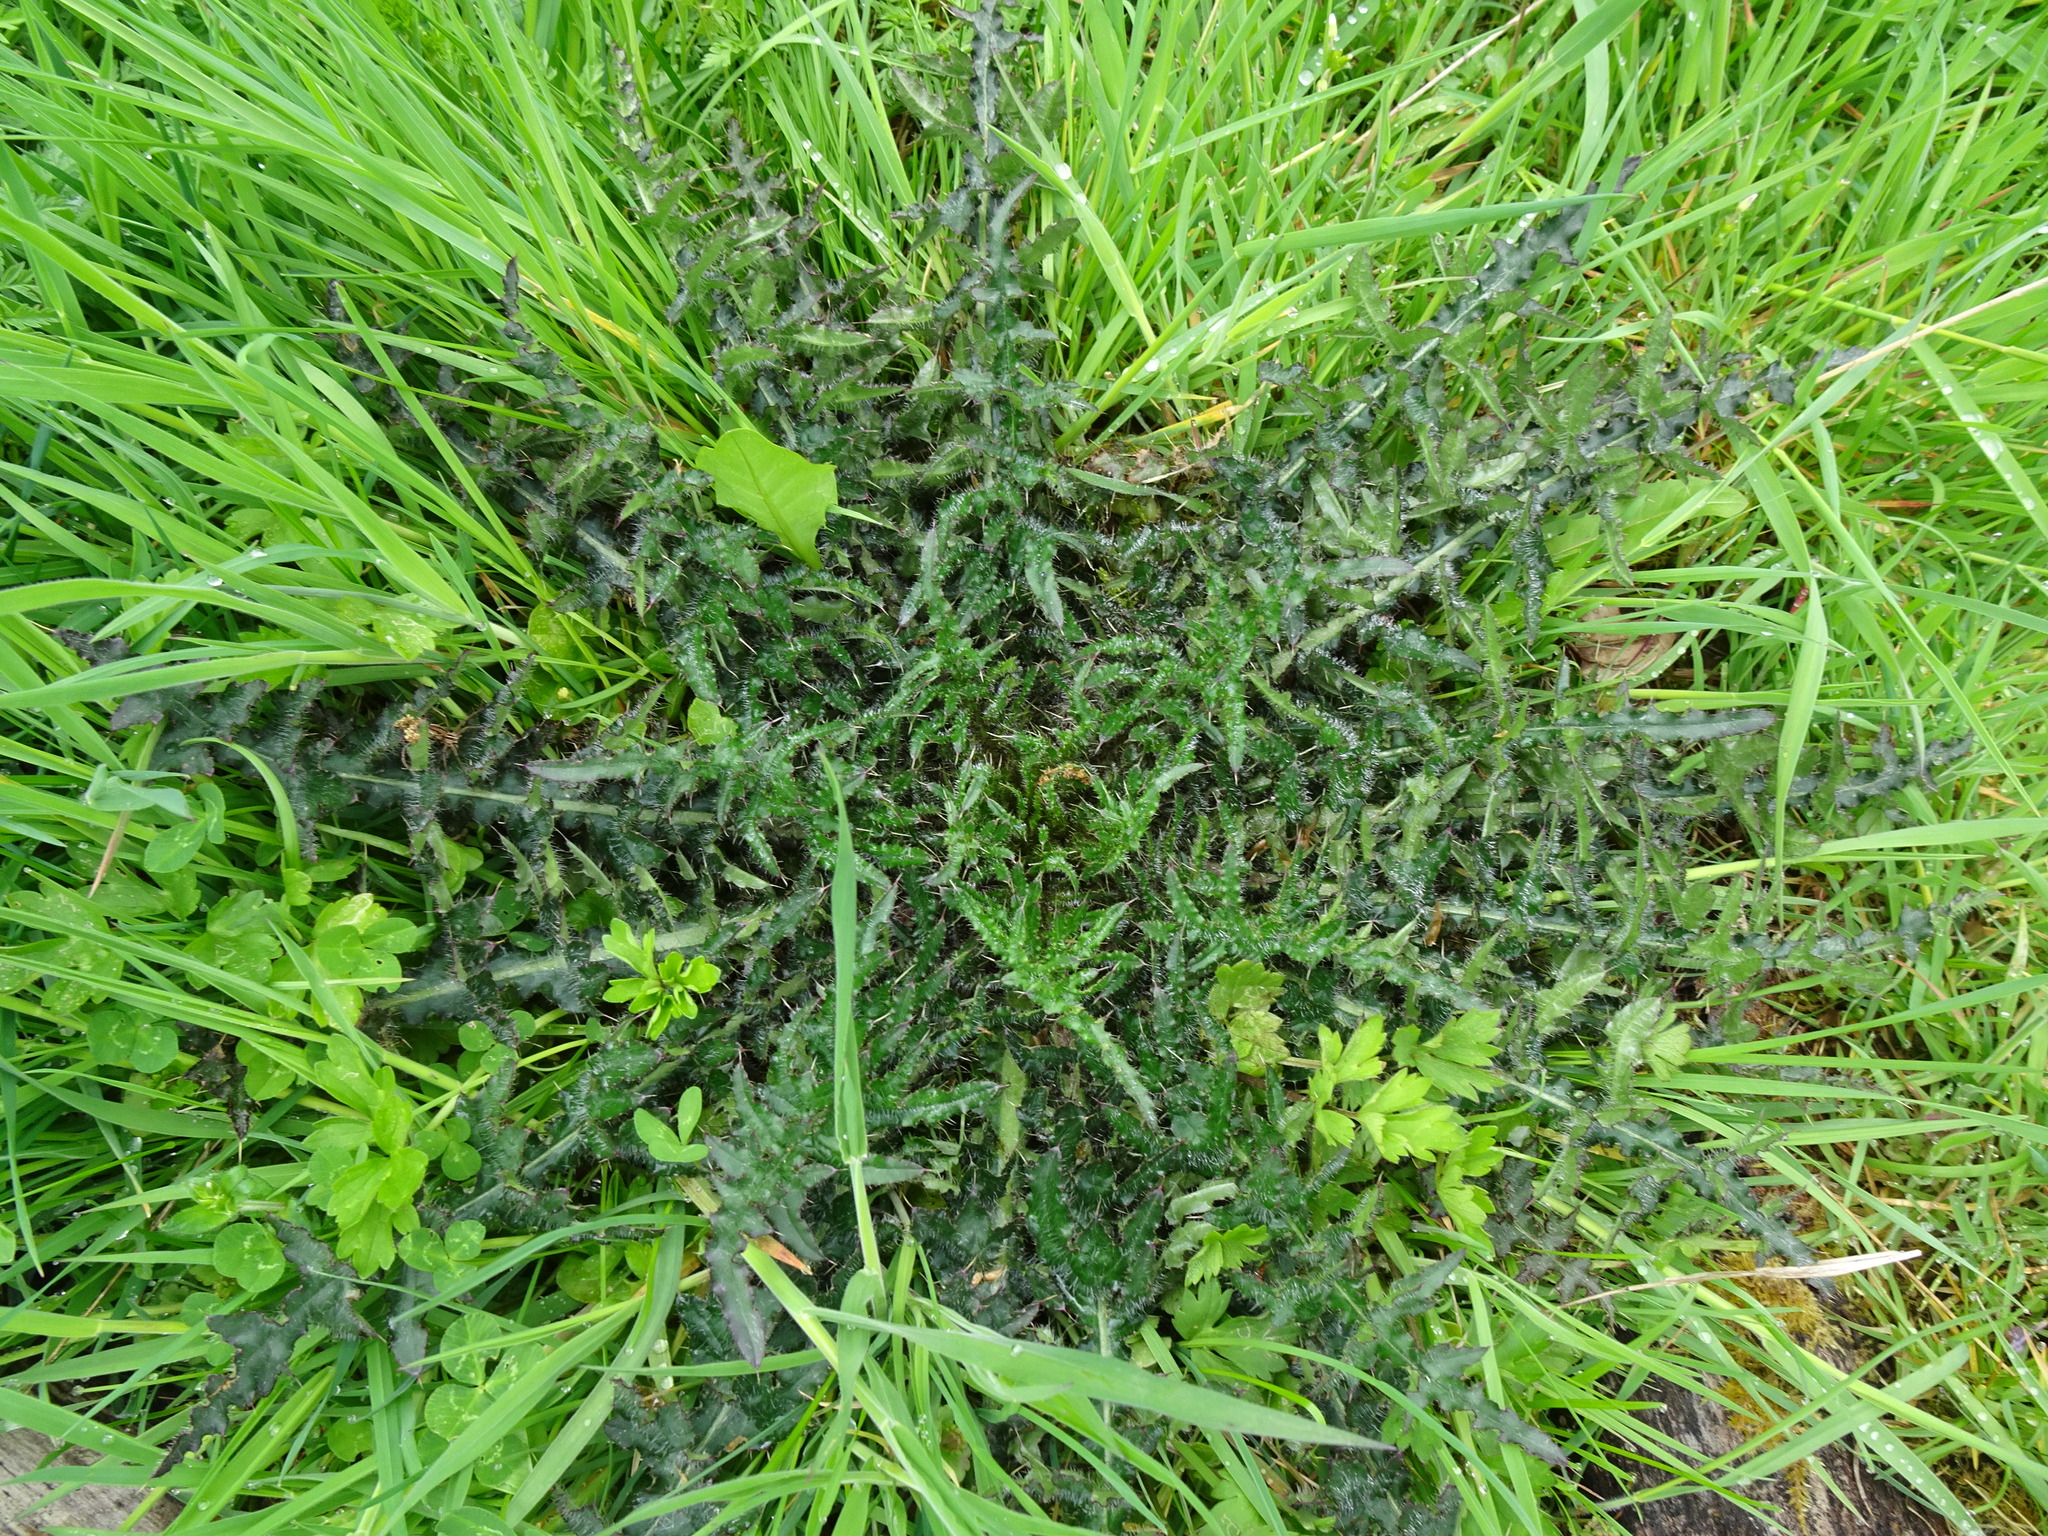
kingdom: Plantae
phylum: Tracheophyta
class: Magnoliopsida
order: Asterales
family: Asteraceae
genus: Cirsium
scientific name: Cirsium palustre
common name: Marsh thistle
